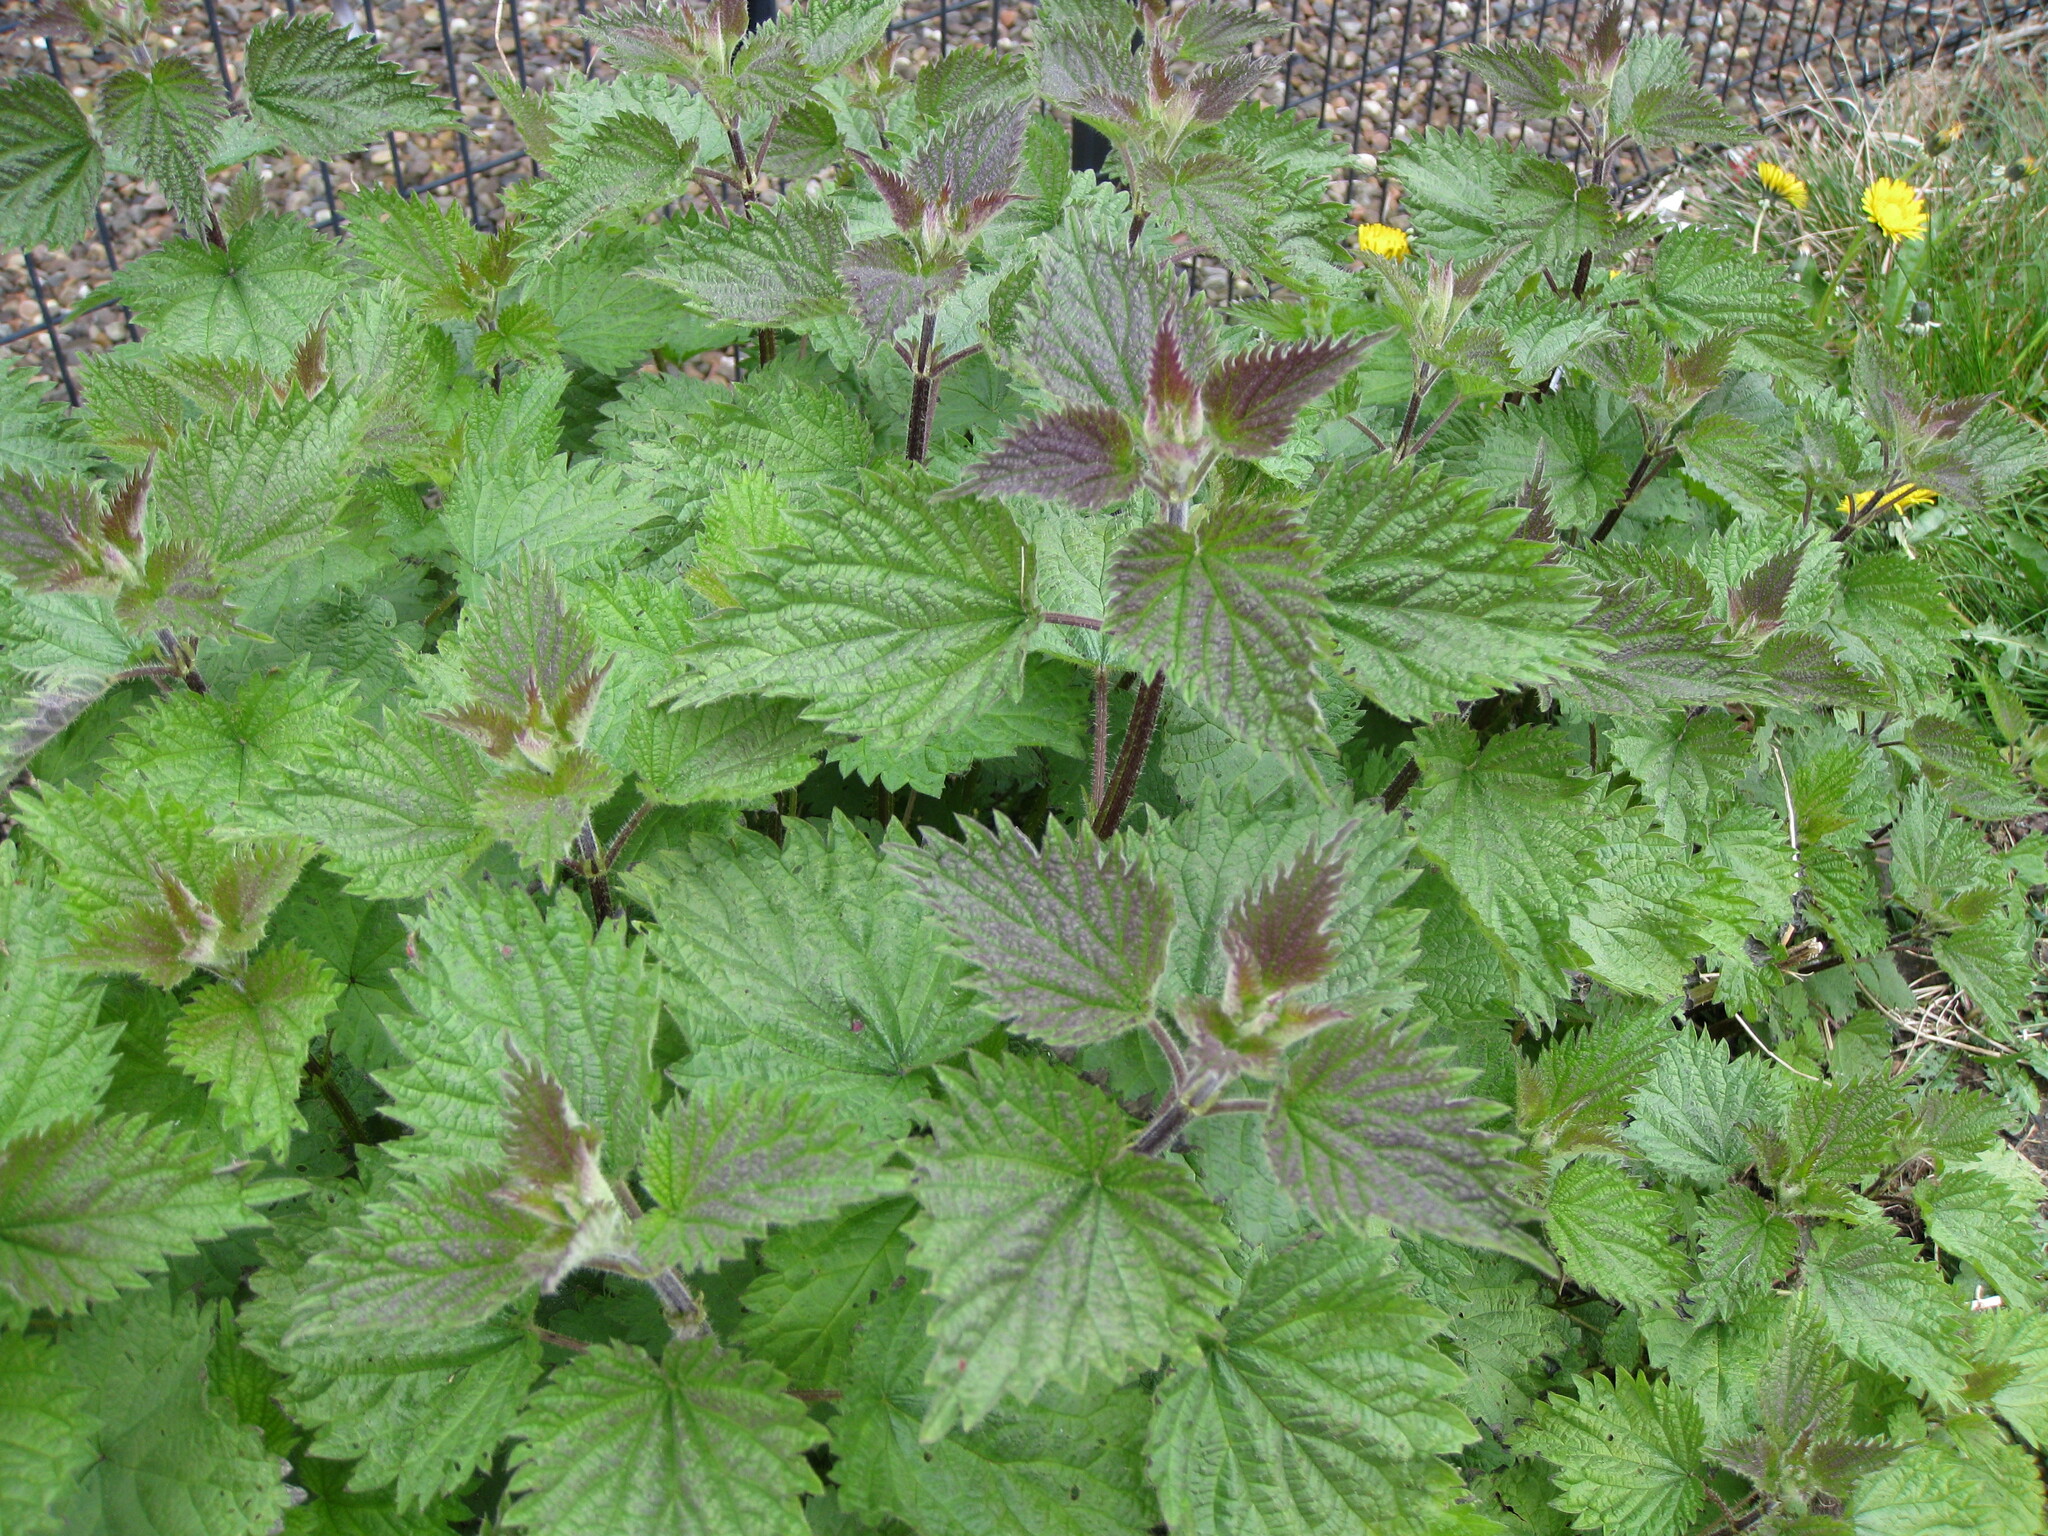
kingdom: Plantae
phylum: Tracheophyta
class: Magnoliopsida
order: Rosales
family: Urticaceae
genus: Urtica
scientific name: Urtica dioica
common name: Common nettle
